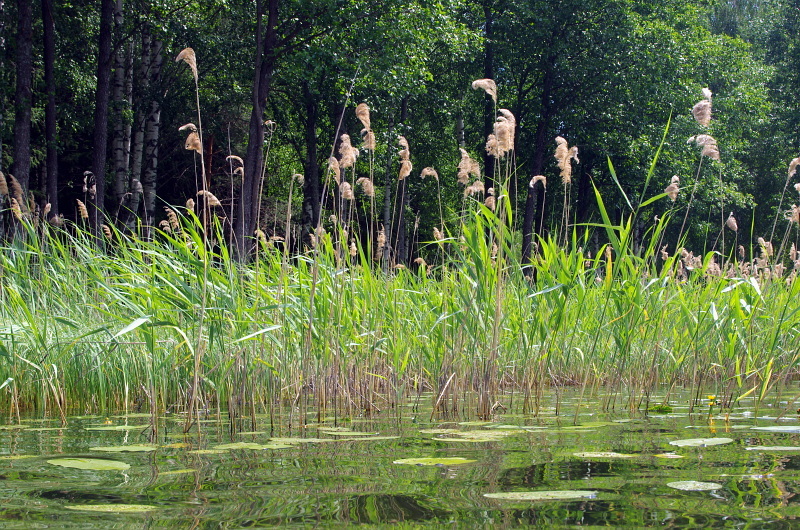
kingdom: Plantae
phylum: Tracheophyta
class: Liliopsida
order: Poales
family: Poaceae
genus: Phragmites
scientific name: Phragmites australis
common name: Common reed
